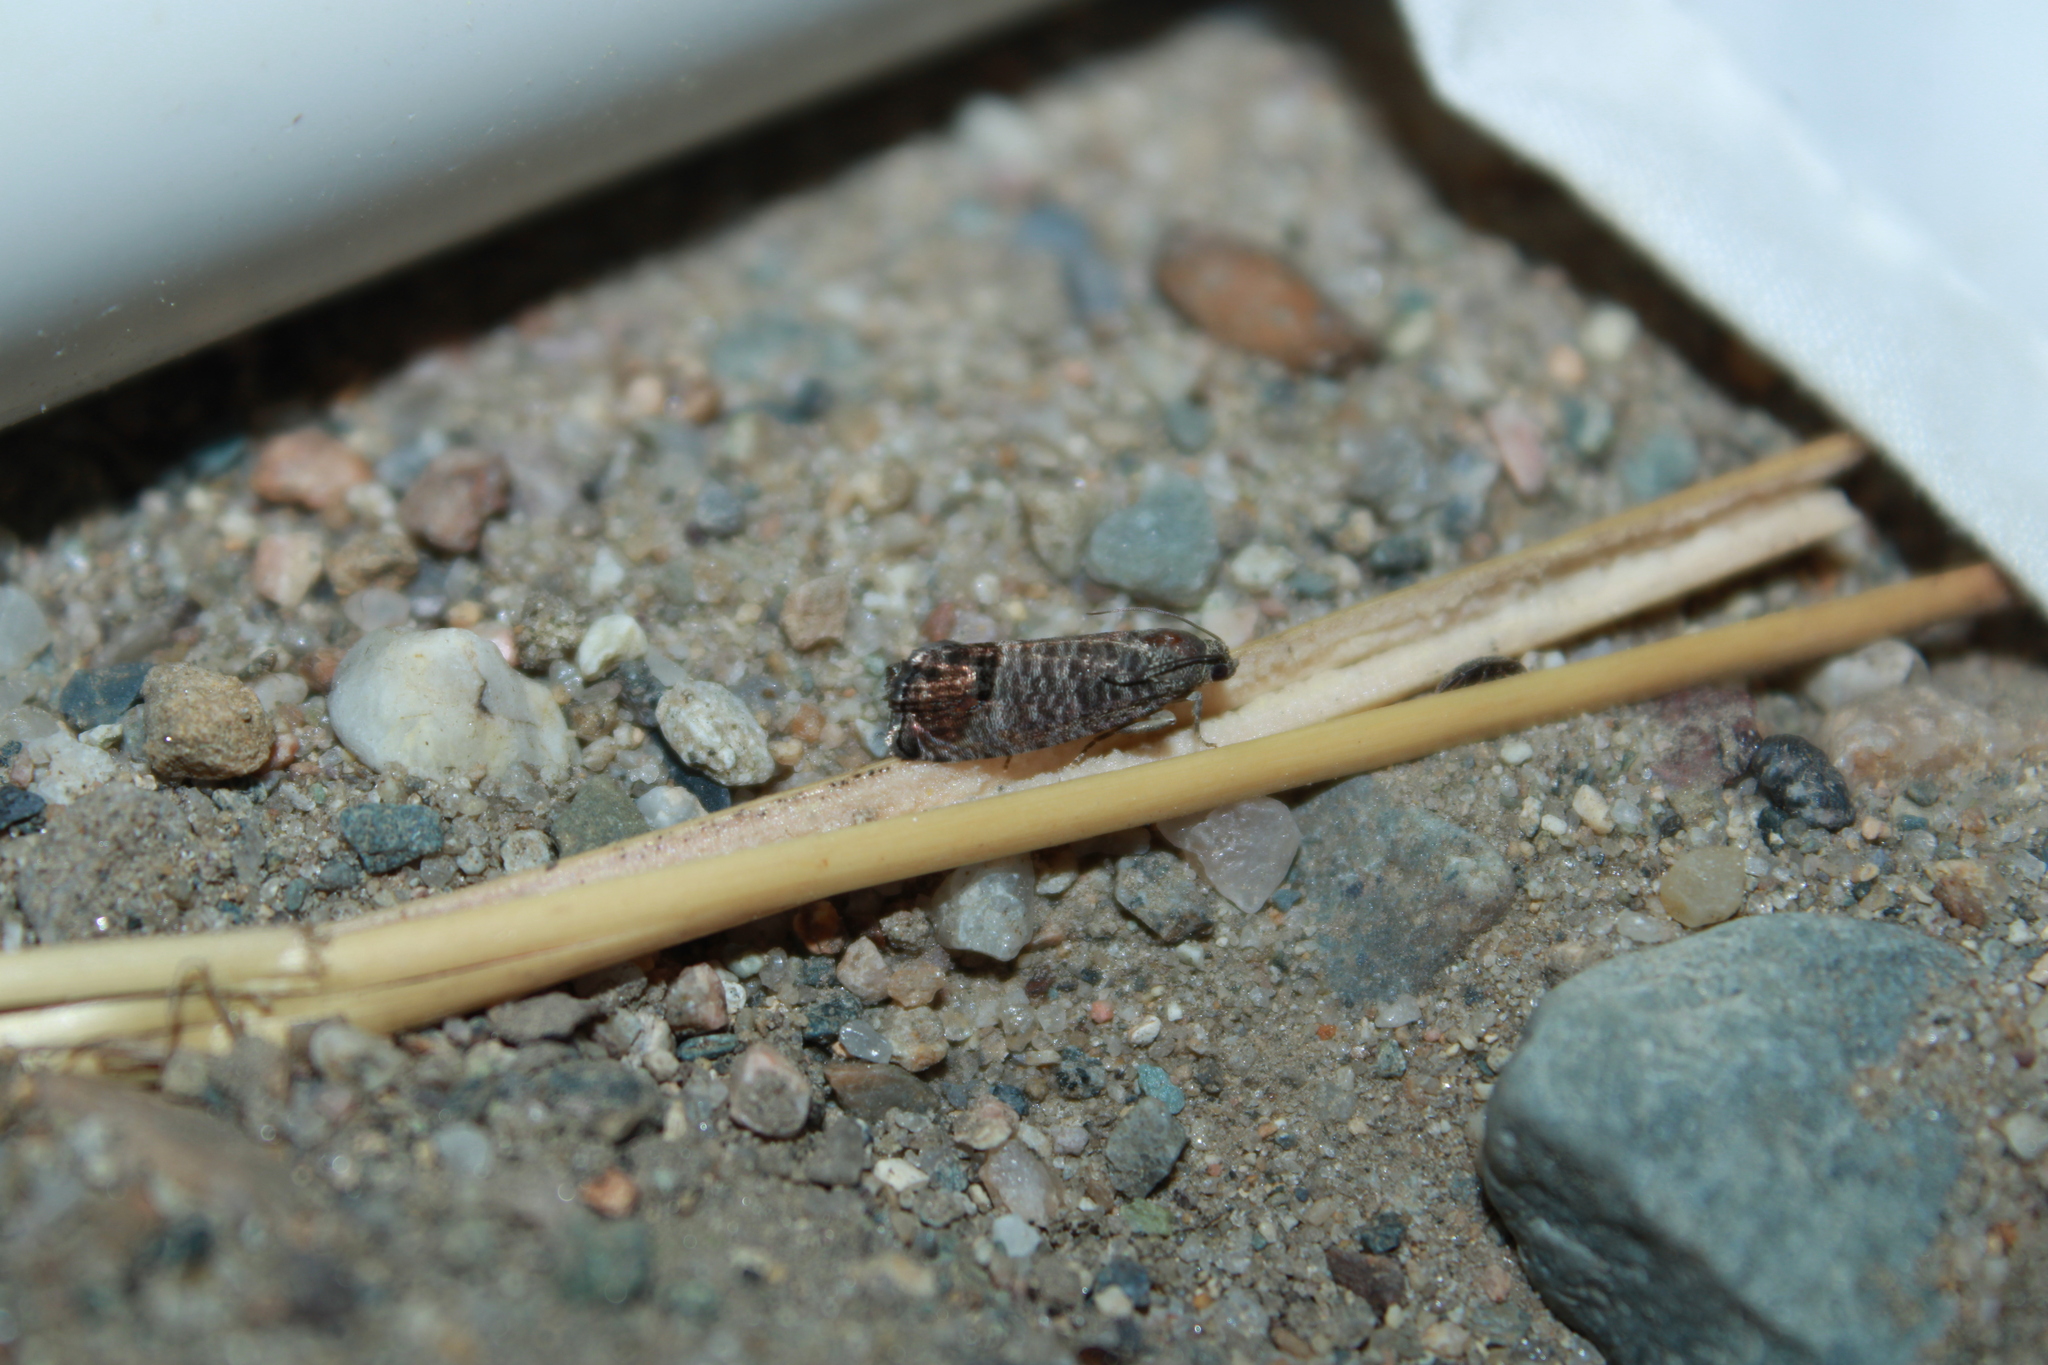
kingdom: Animalia
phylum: Arthropoda
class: Insecta
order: Lepidoptera
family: Tortricidae
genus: Cydia
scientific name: Cydia pomonella
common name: Codling moth
